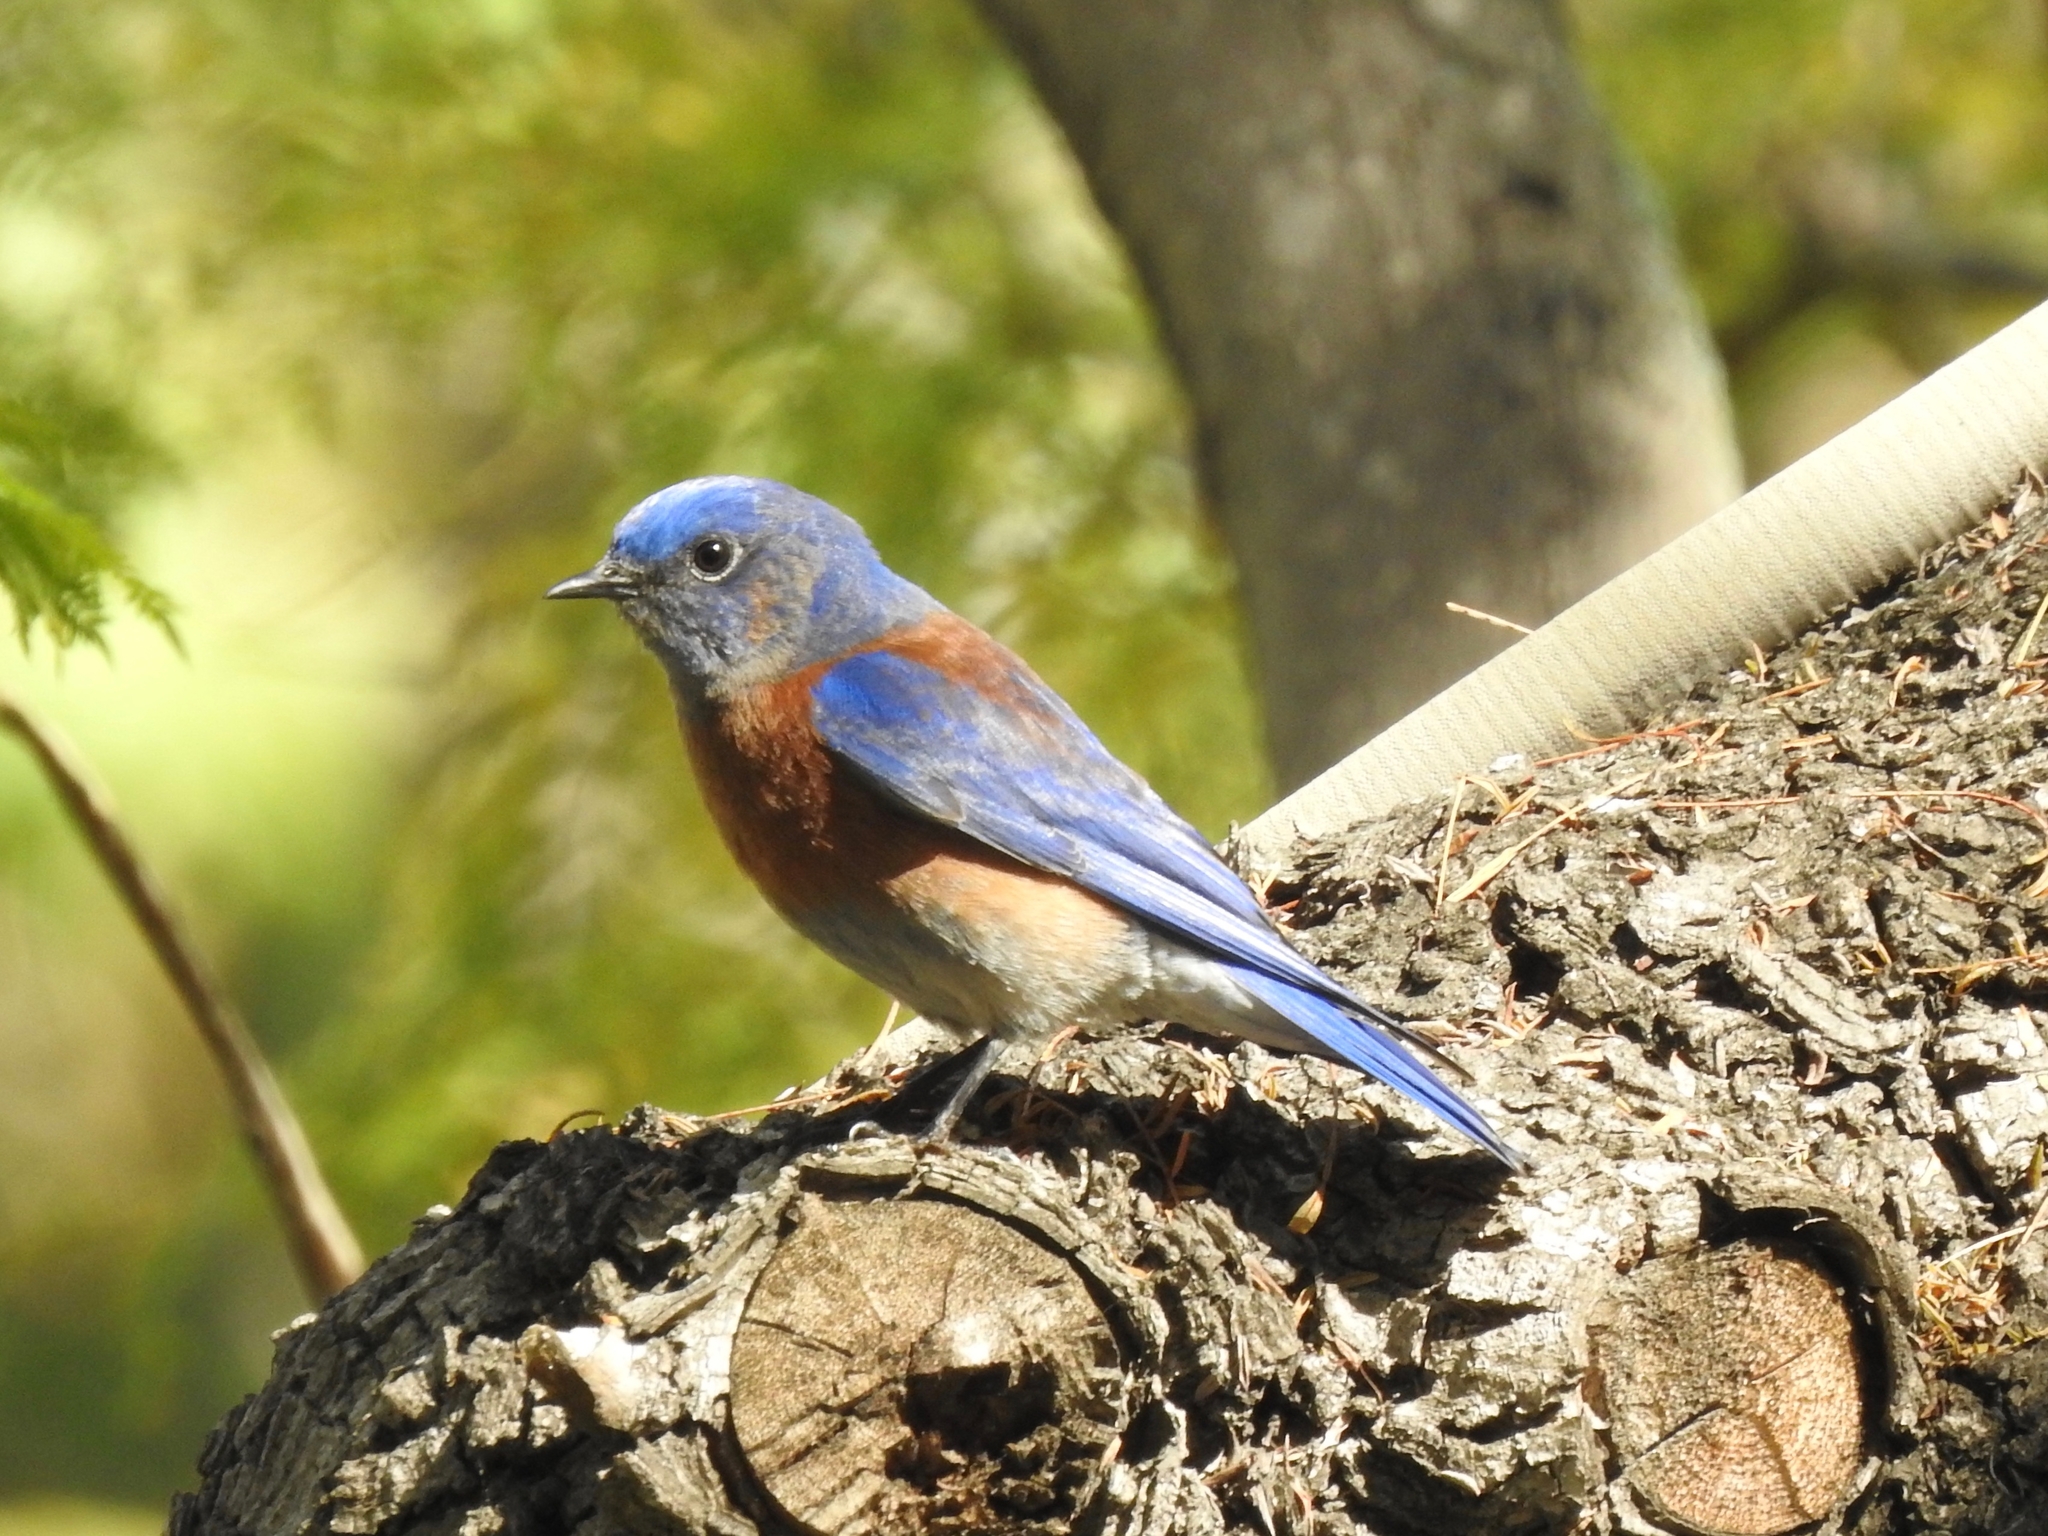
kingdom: Animalia
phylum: Chordata
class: Aves
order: Passeriformes
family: Turdidae
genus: Sialia
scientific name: Sialia mexicana
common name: Western bluebird
